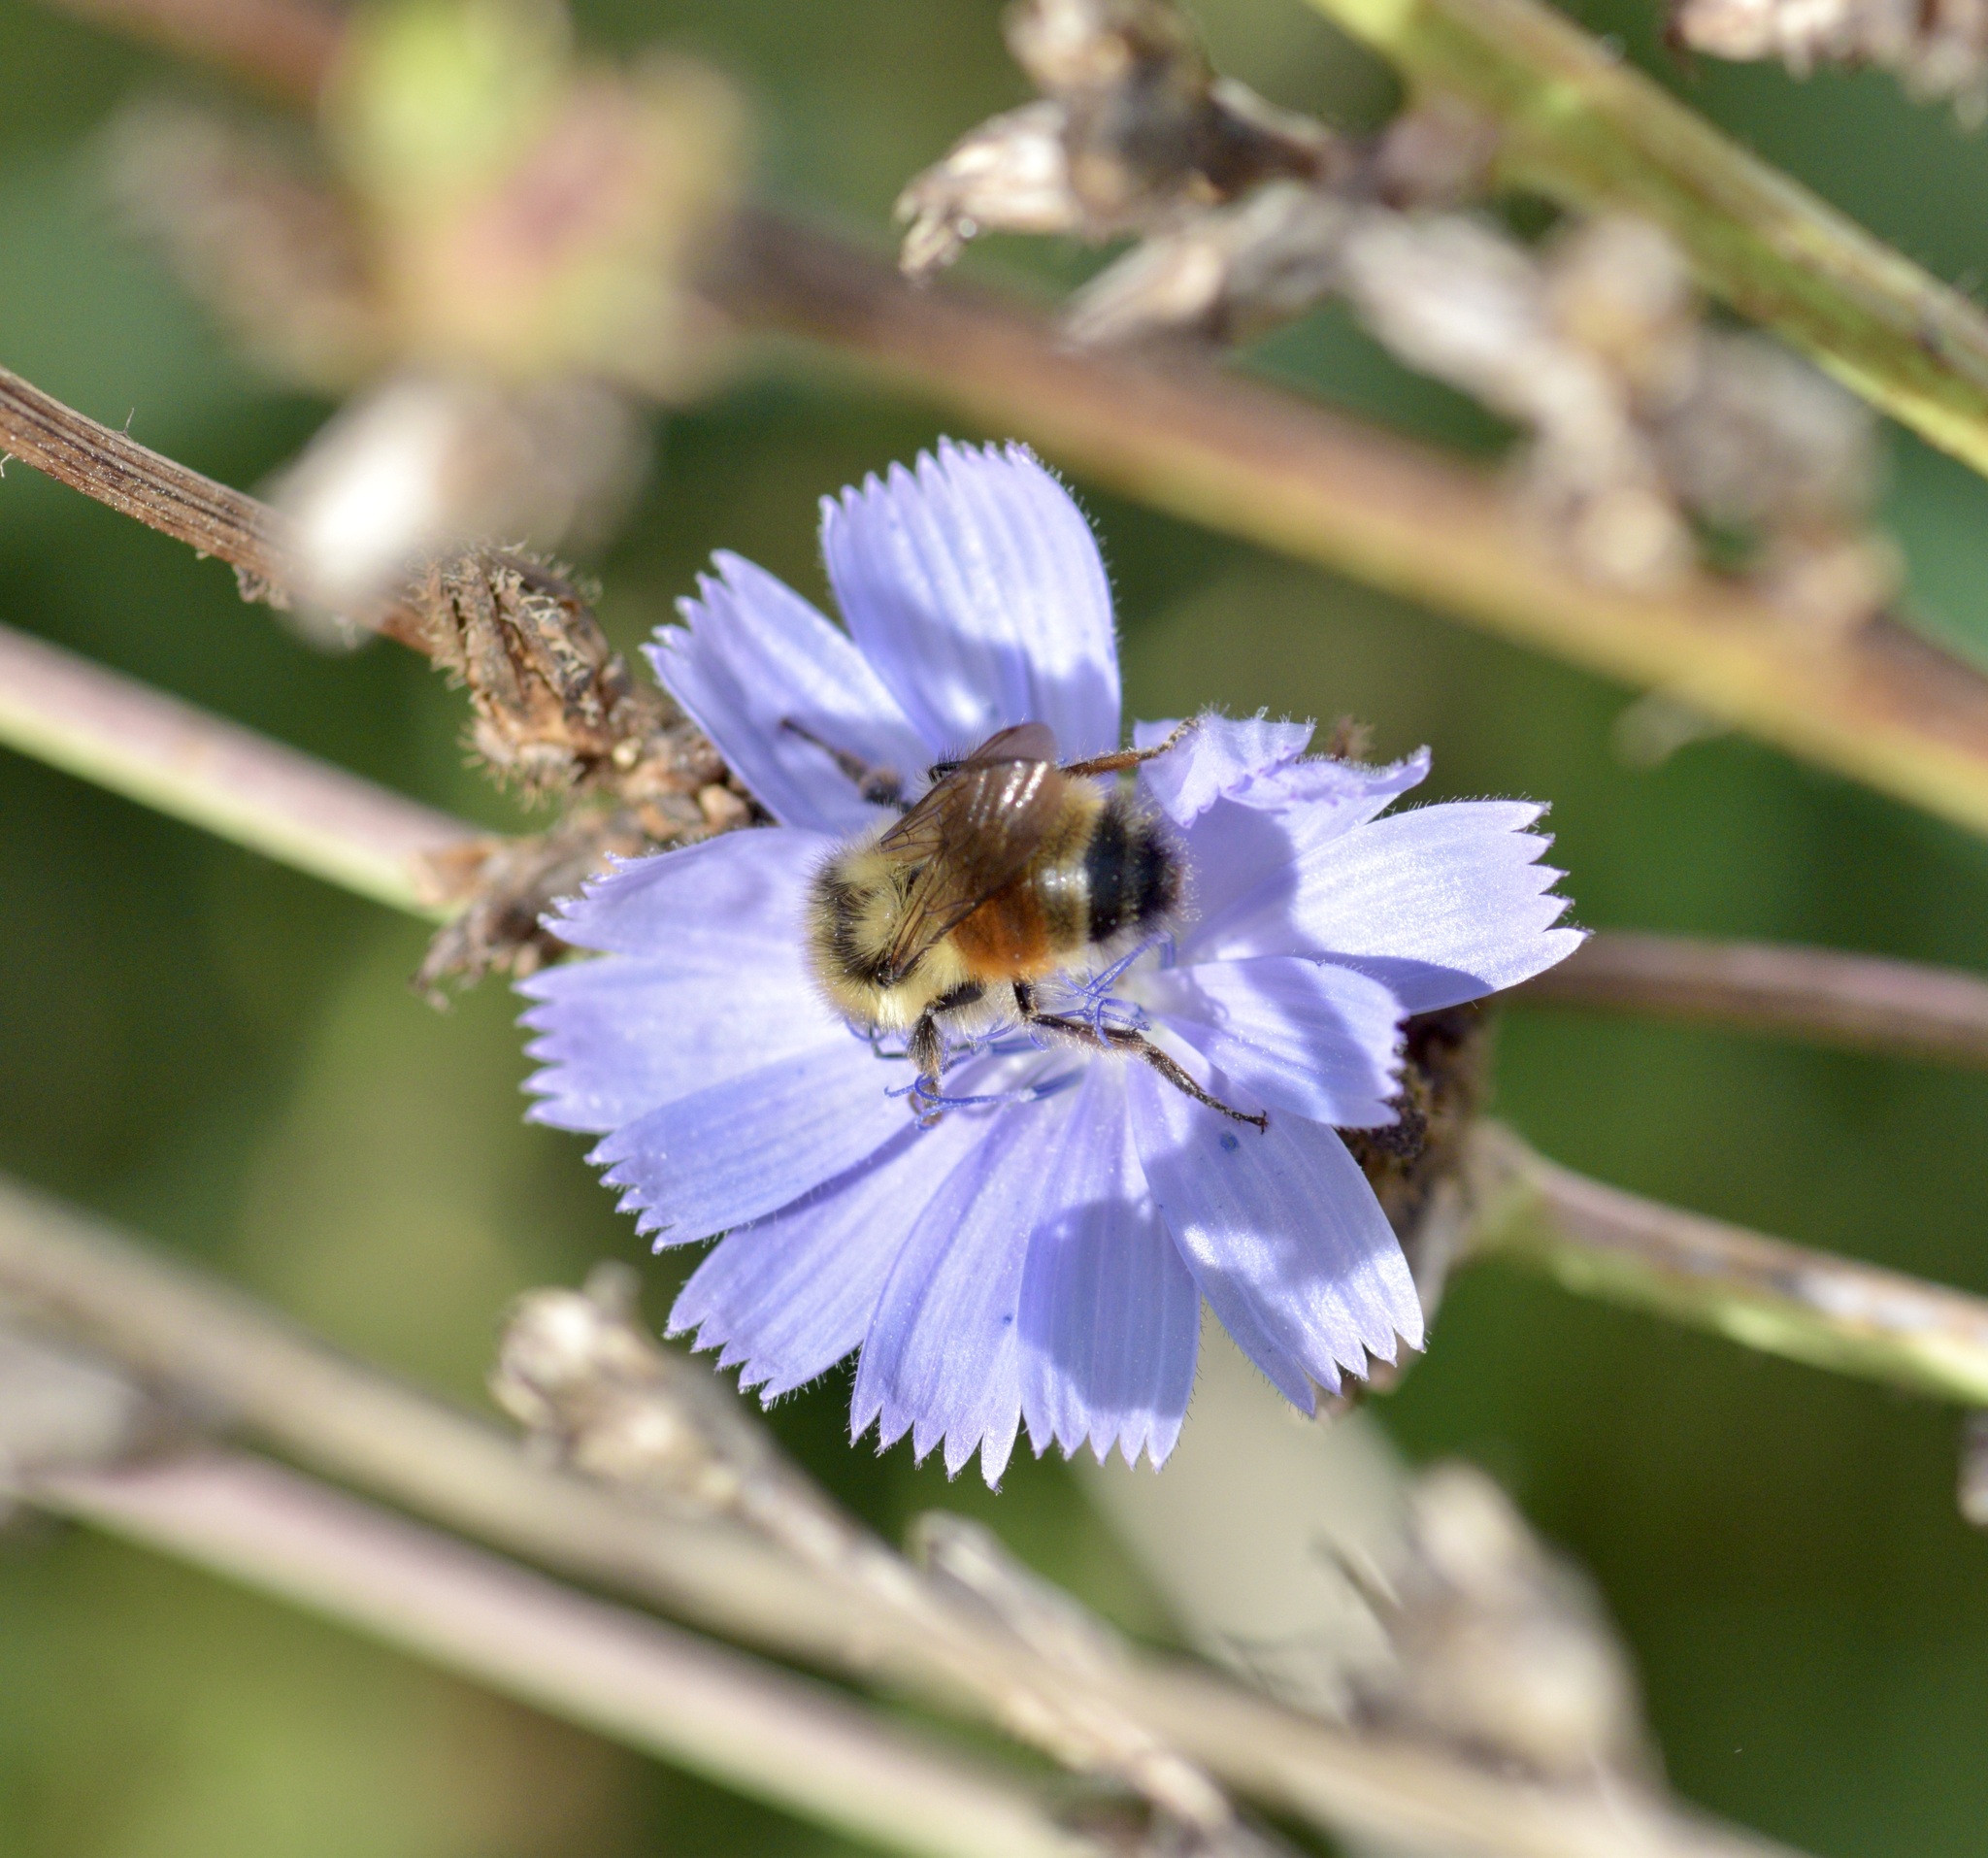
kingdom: Animalia
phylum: Arthropoda
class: Insecta
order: Hymenoptera
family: Apidae
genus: Bombus
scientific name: Bombus ternarius
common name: Tri-colored bumble bee
